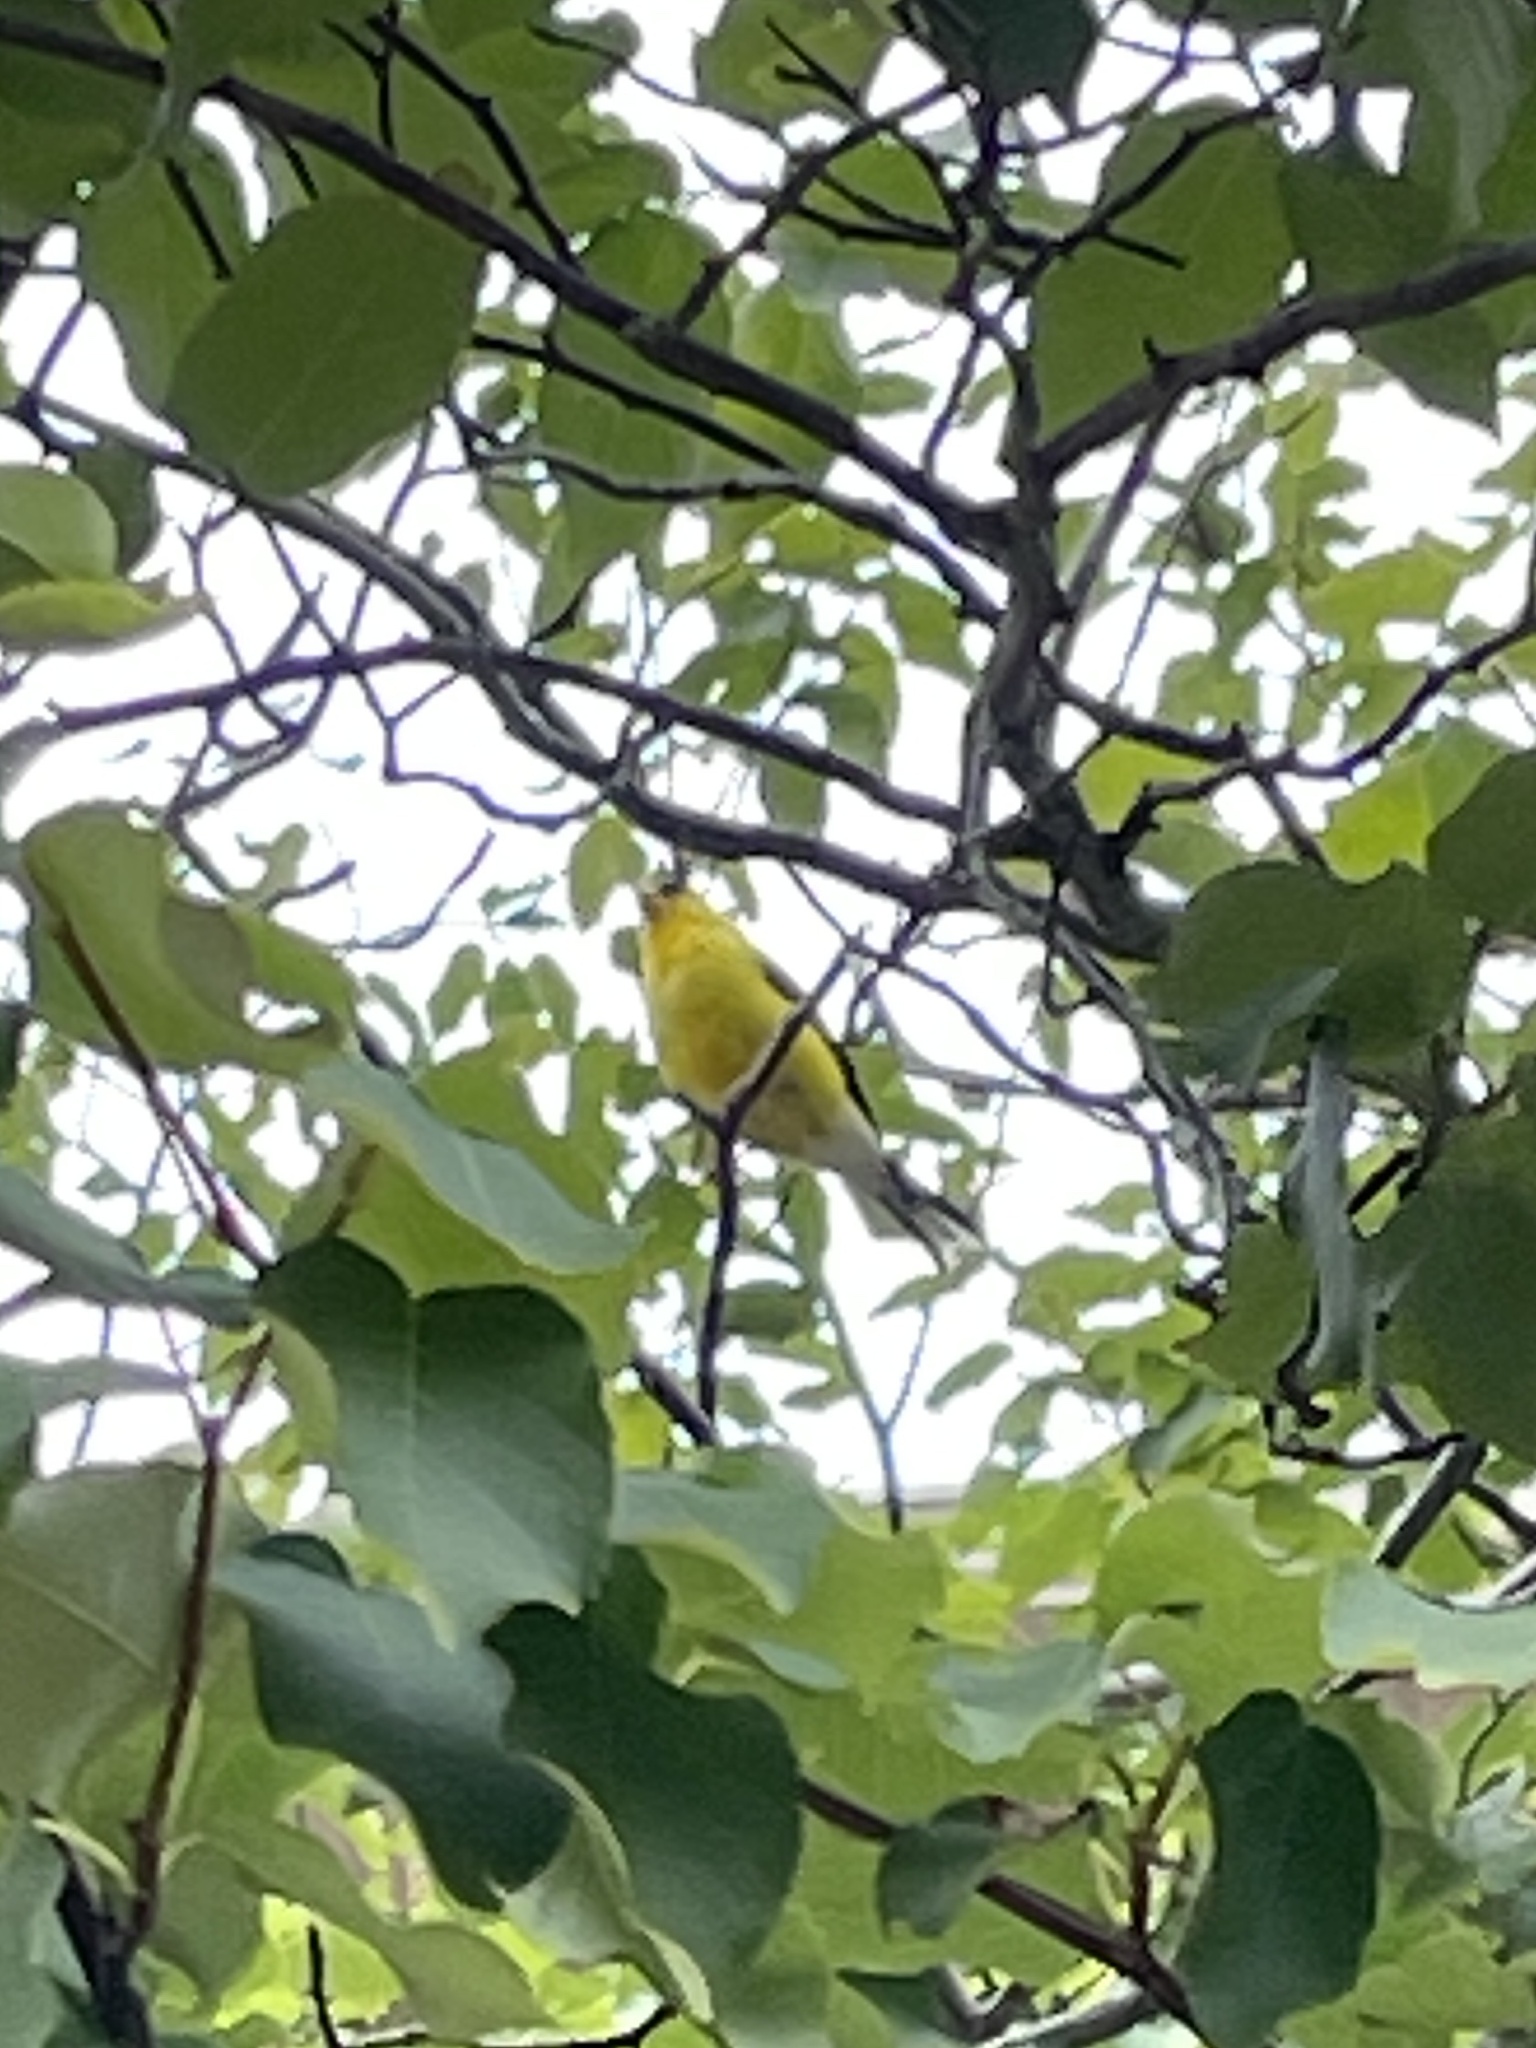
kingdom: Animalia
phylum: Chordata
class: Aves
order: Passeriformes
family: Fringillidae
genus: Spinus
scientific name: Spinus tristis
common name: American goldfinch
